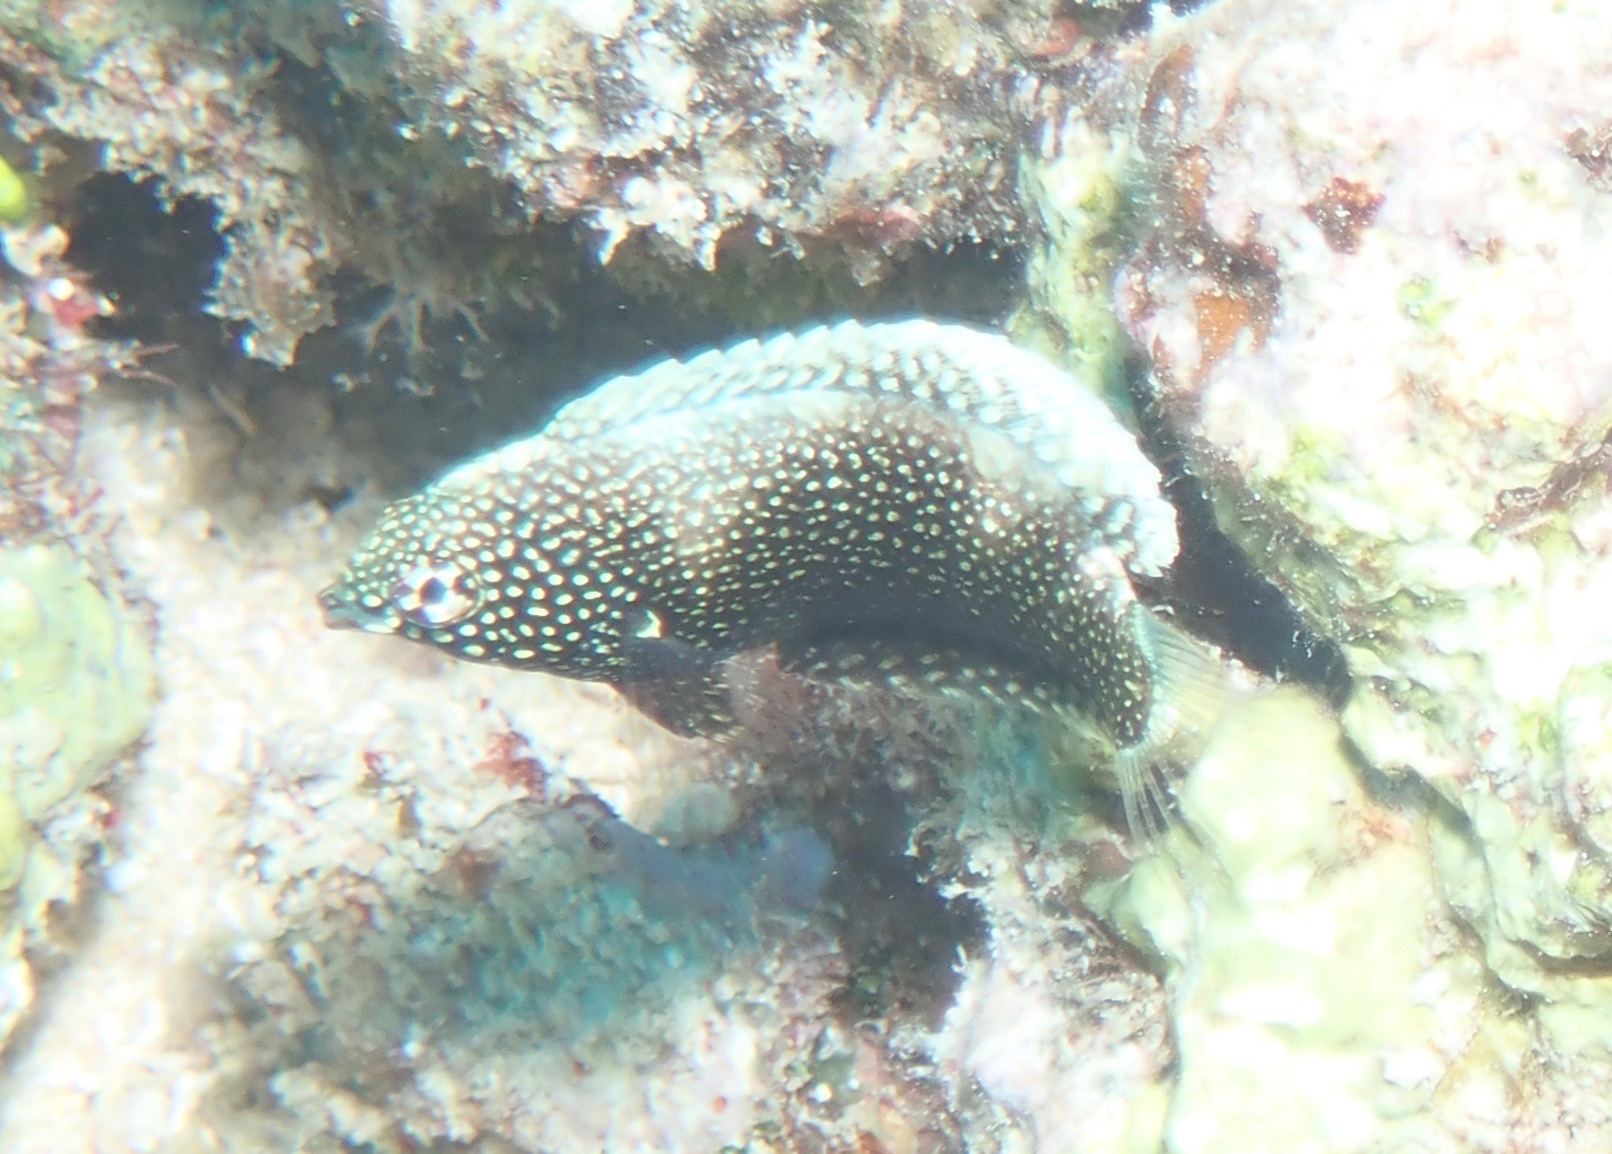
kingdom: Animalia
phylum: Chordata
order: Perciformes
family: Labridae
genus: Macropharyngodon
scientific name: Macropharyngodon negrosensis
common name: Black leopard wrasse
